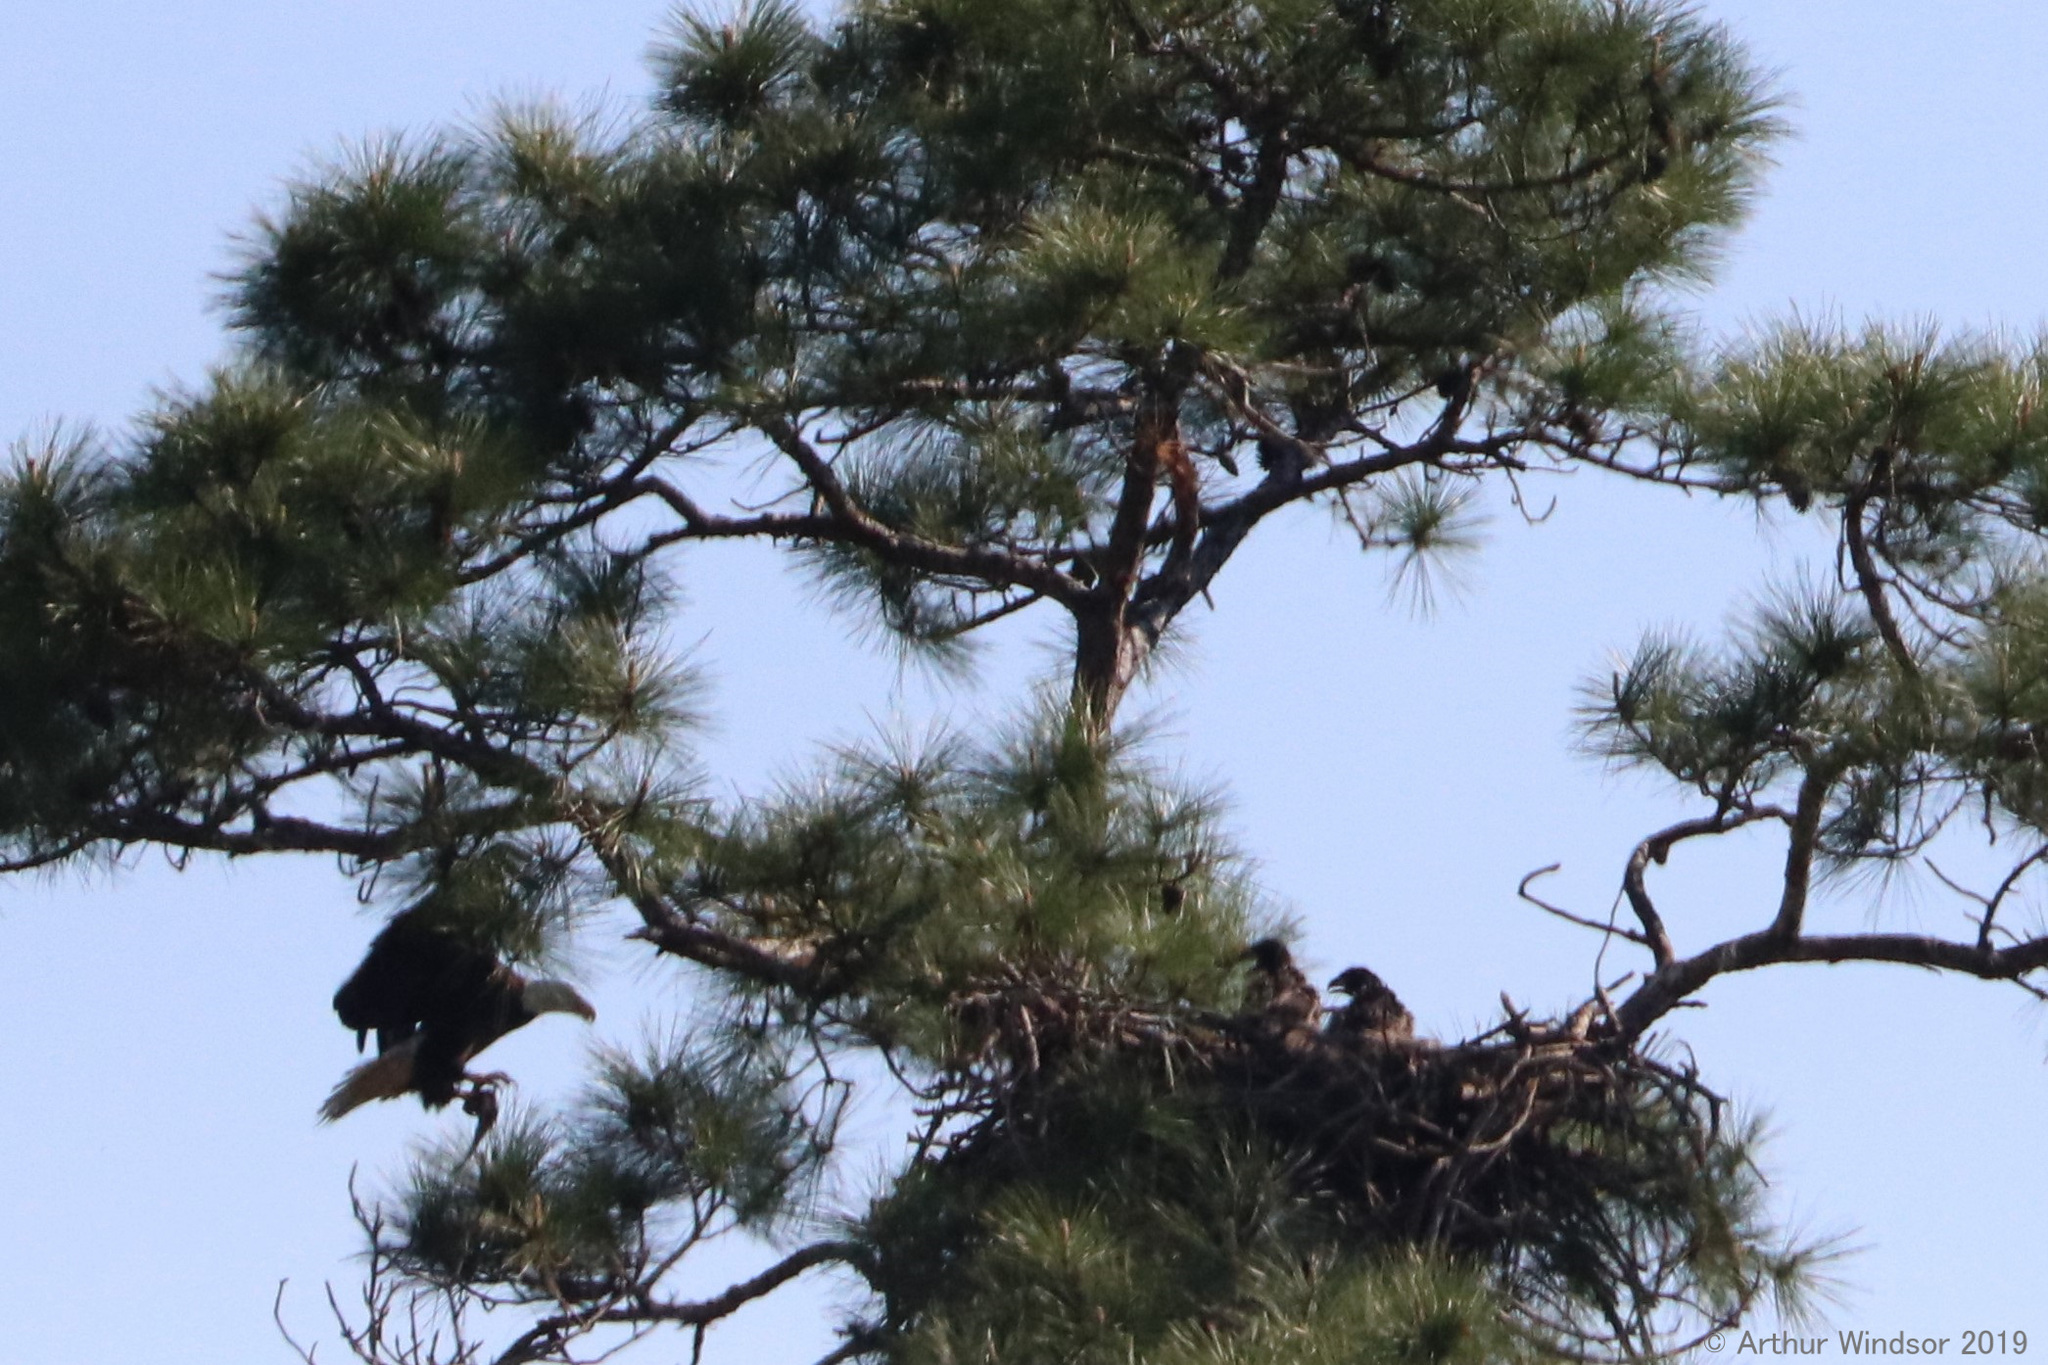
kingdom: Animalia
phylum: Chordata
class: Aves
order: Accipitriformes
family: Accipitridae
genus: Haliaeetus
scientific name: Haliaeetus leucocephalus
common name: Bald eagle
